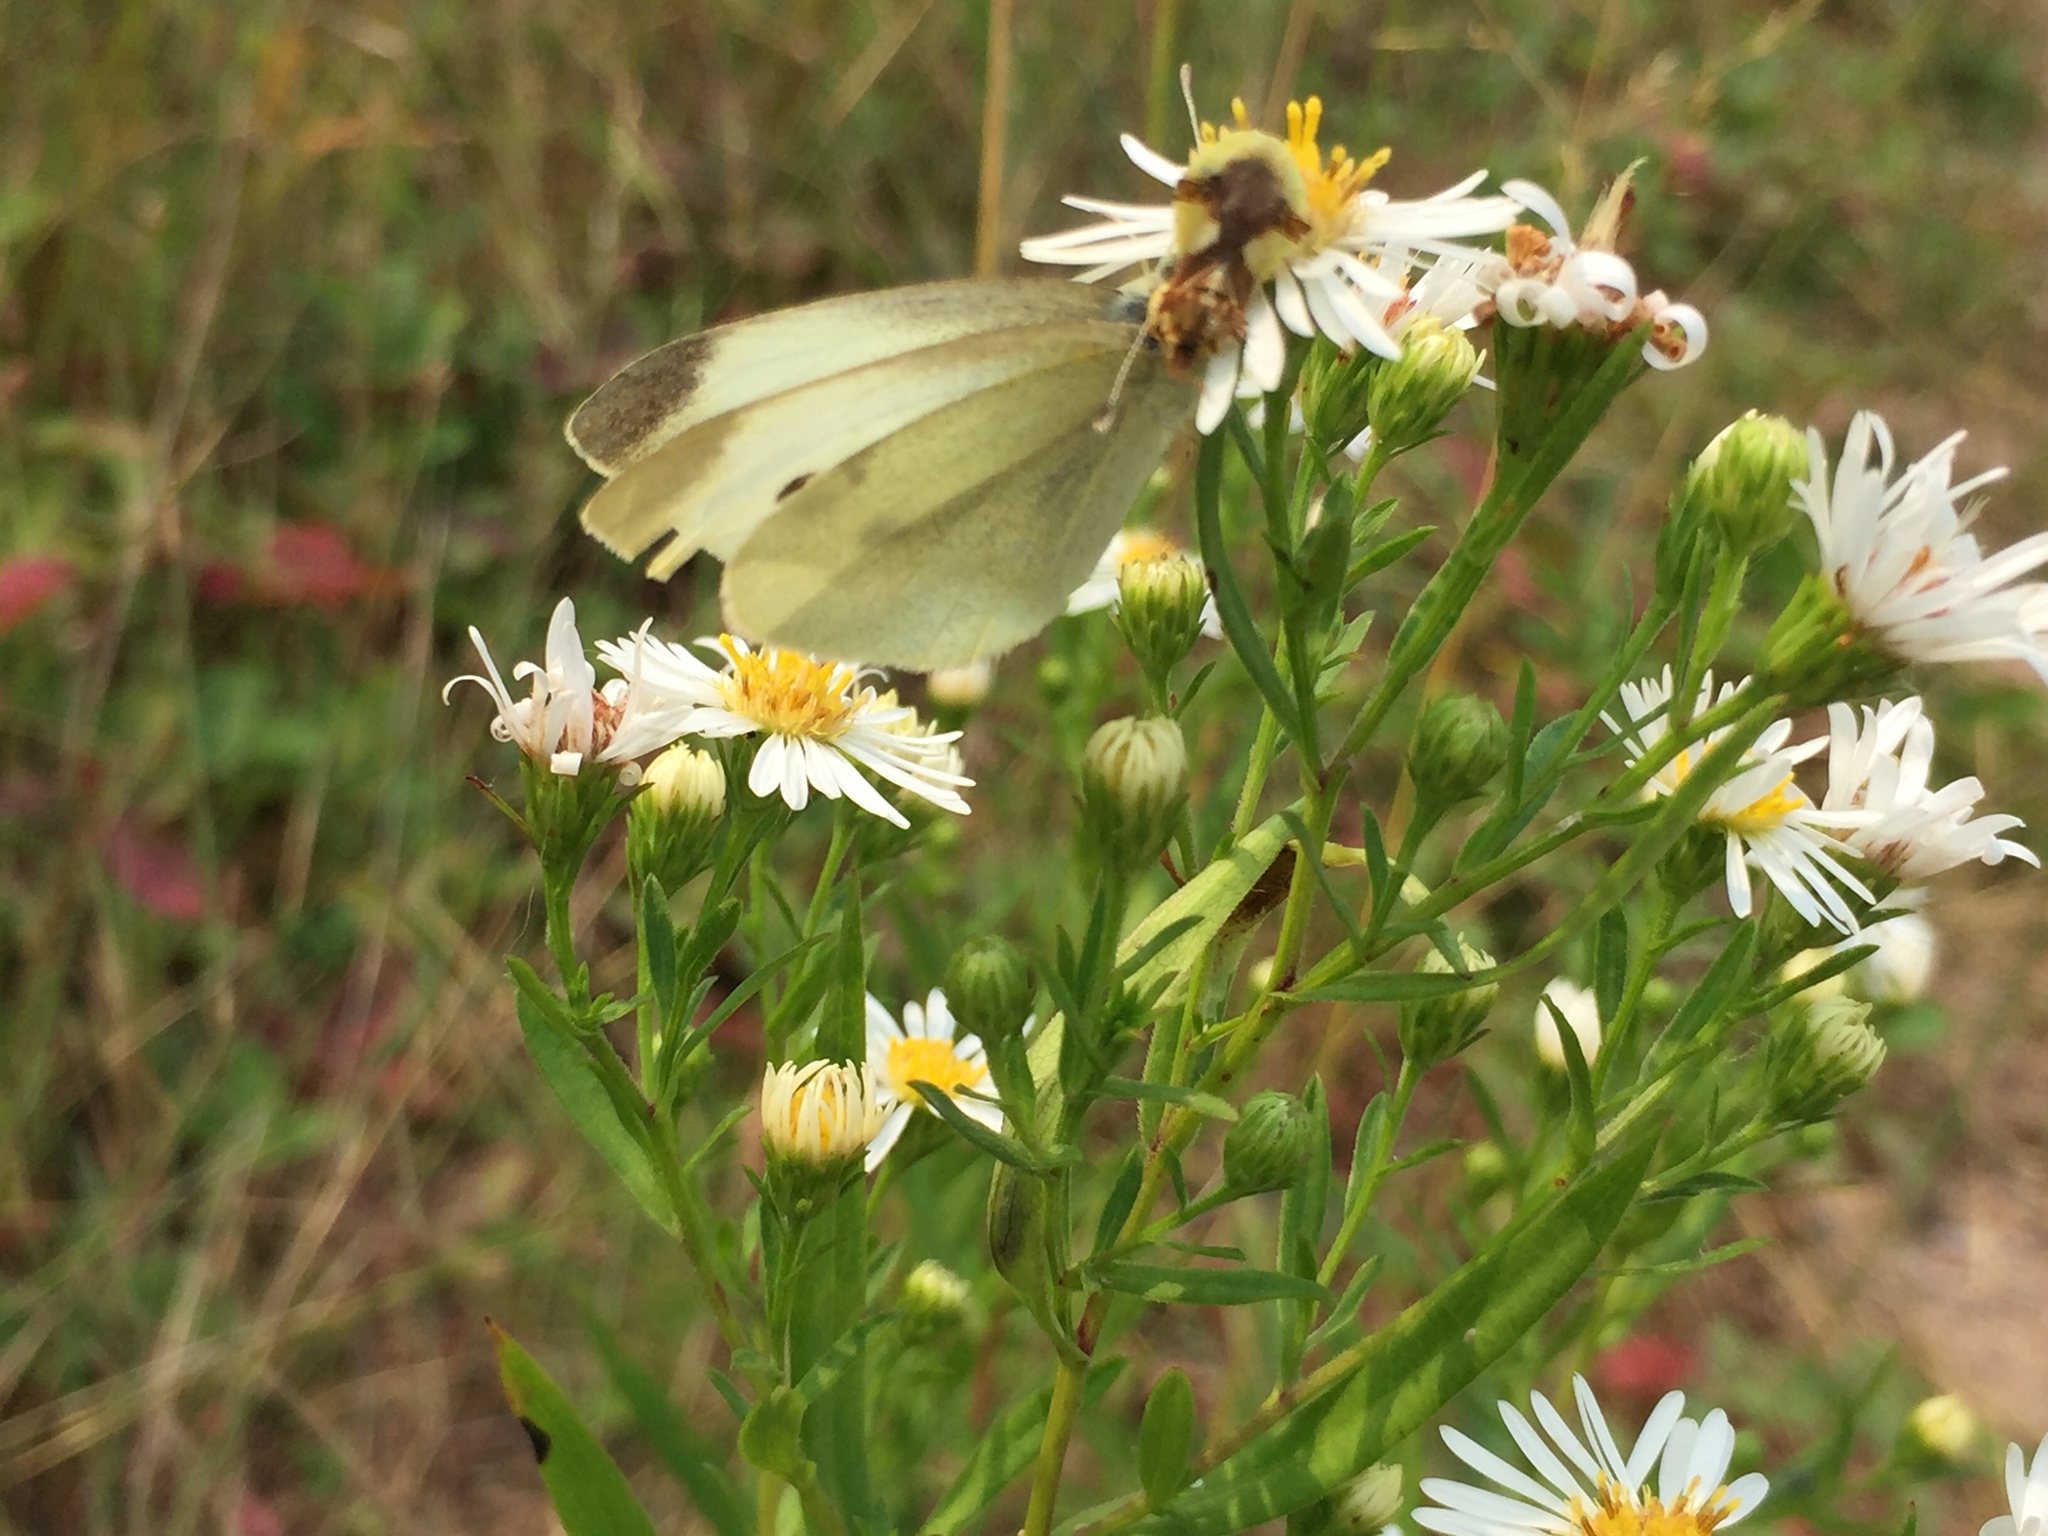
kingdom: Animalia
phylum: Arthropoda
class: Insecta
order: Lepidoptera
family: Pieridae
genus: Pieris
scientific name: Pieris rapae
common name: Small white
